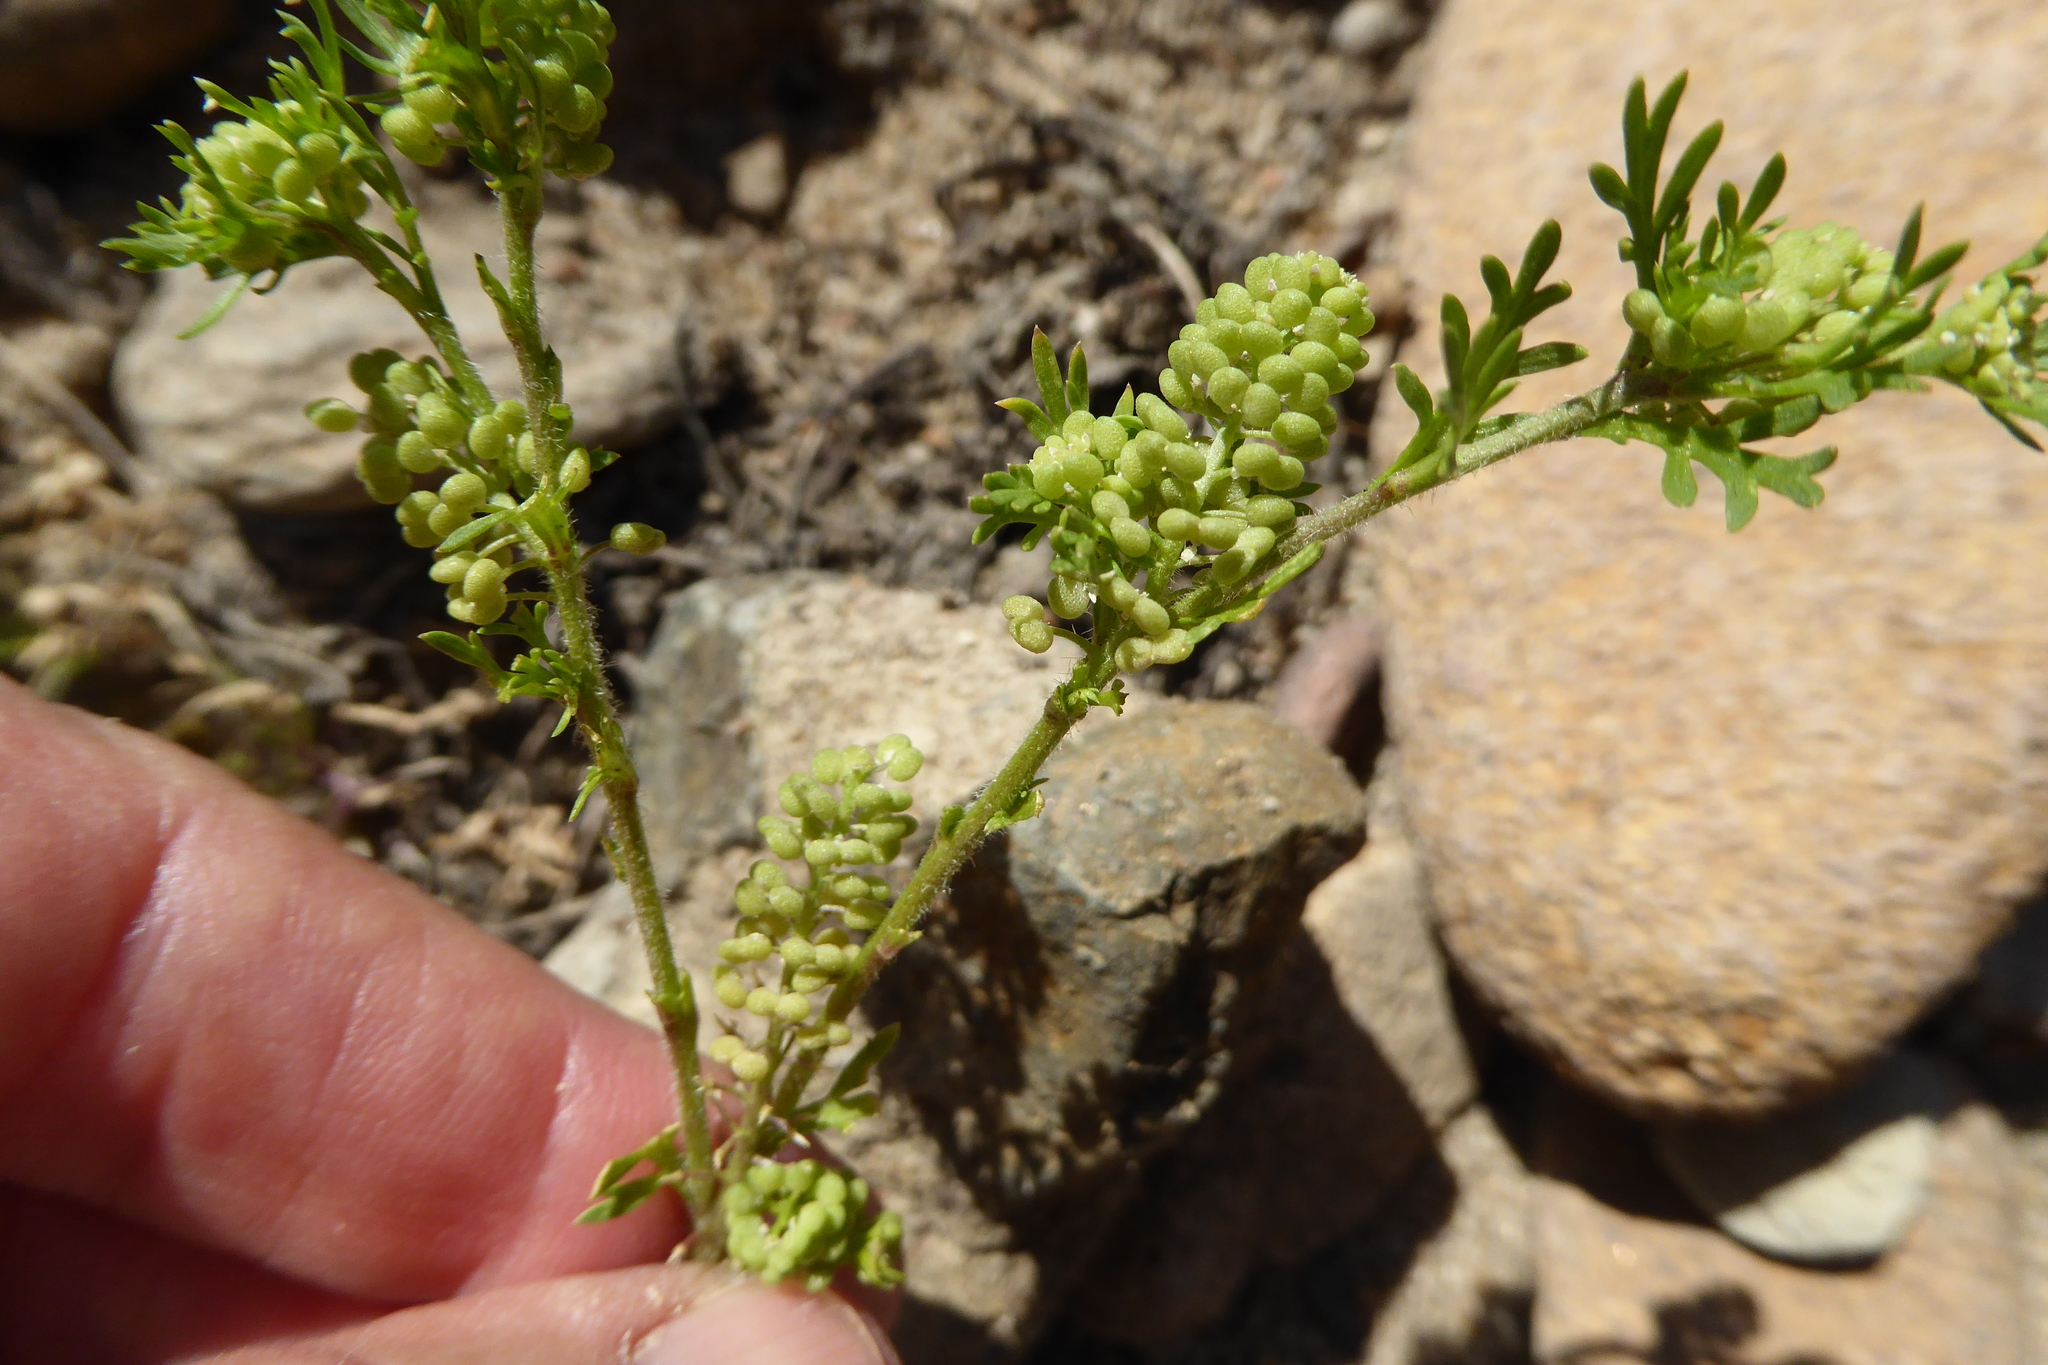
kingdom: Plantae
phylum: Tracheophyta
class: Magnoliopsida
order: Brassicales
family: Brassicaceae
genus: Lepidium
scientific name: Lepidium didymum
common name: Lesser swinecress
